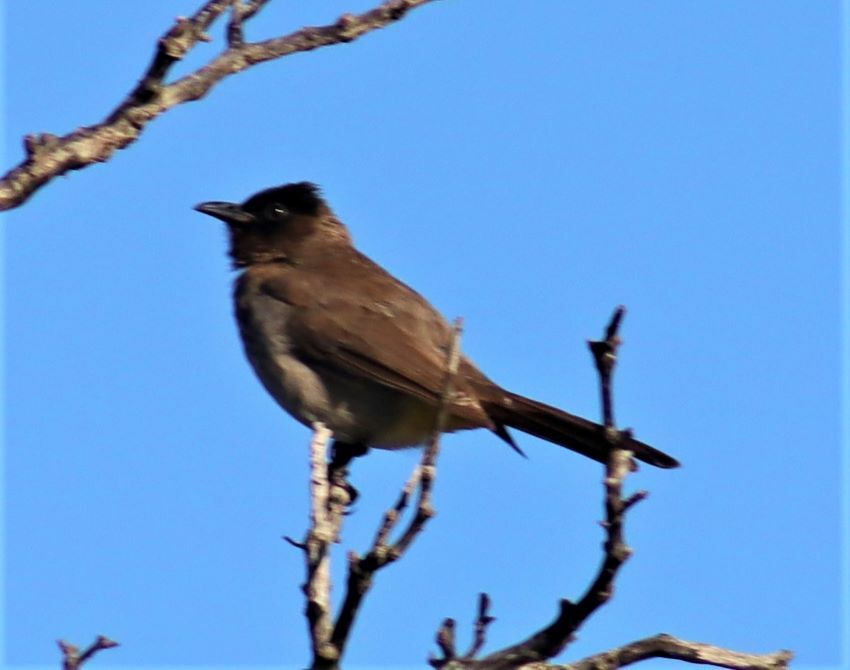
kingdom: Animalia
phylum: Chordata
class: Aves
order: Passeriformes
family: Pycnonotidae
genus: Pycnonotus
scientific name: Pycnonotus barbatus
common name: Common bulbul
